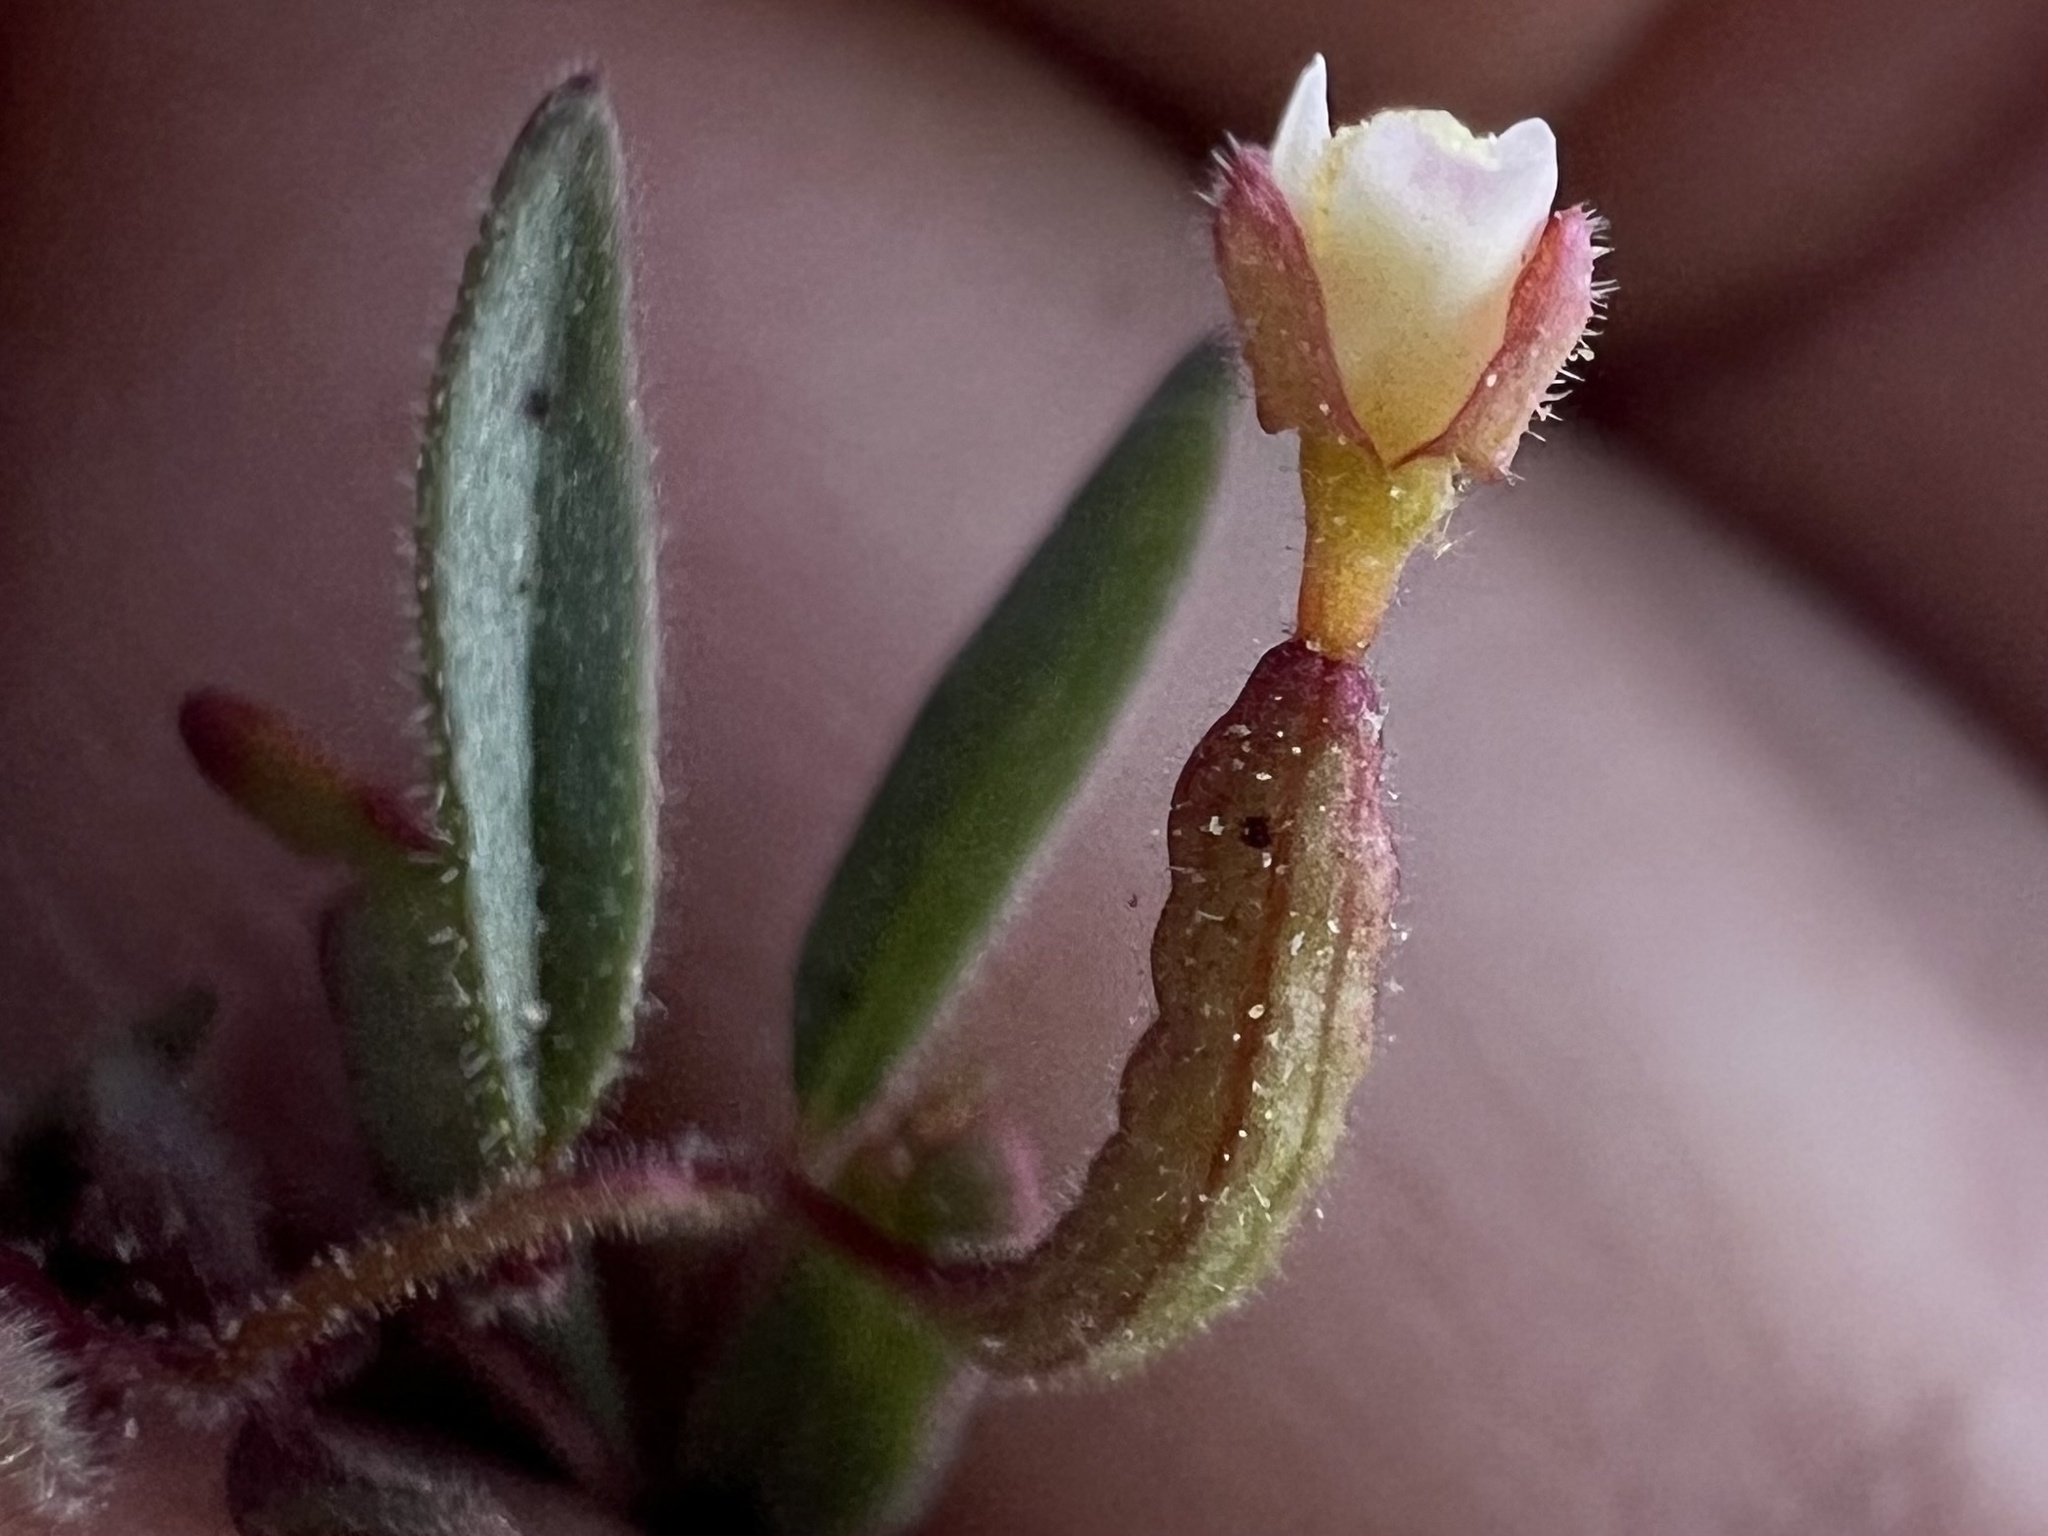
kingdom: Plantae
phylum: Tracheophyta
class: Magnoliopsida
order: Myrtales
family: Onagraceae
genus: Chylismiella
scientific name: Chylismiella pterosperma
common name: Wingfruit suncup
